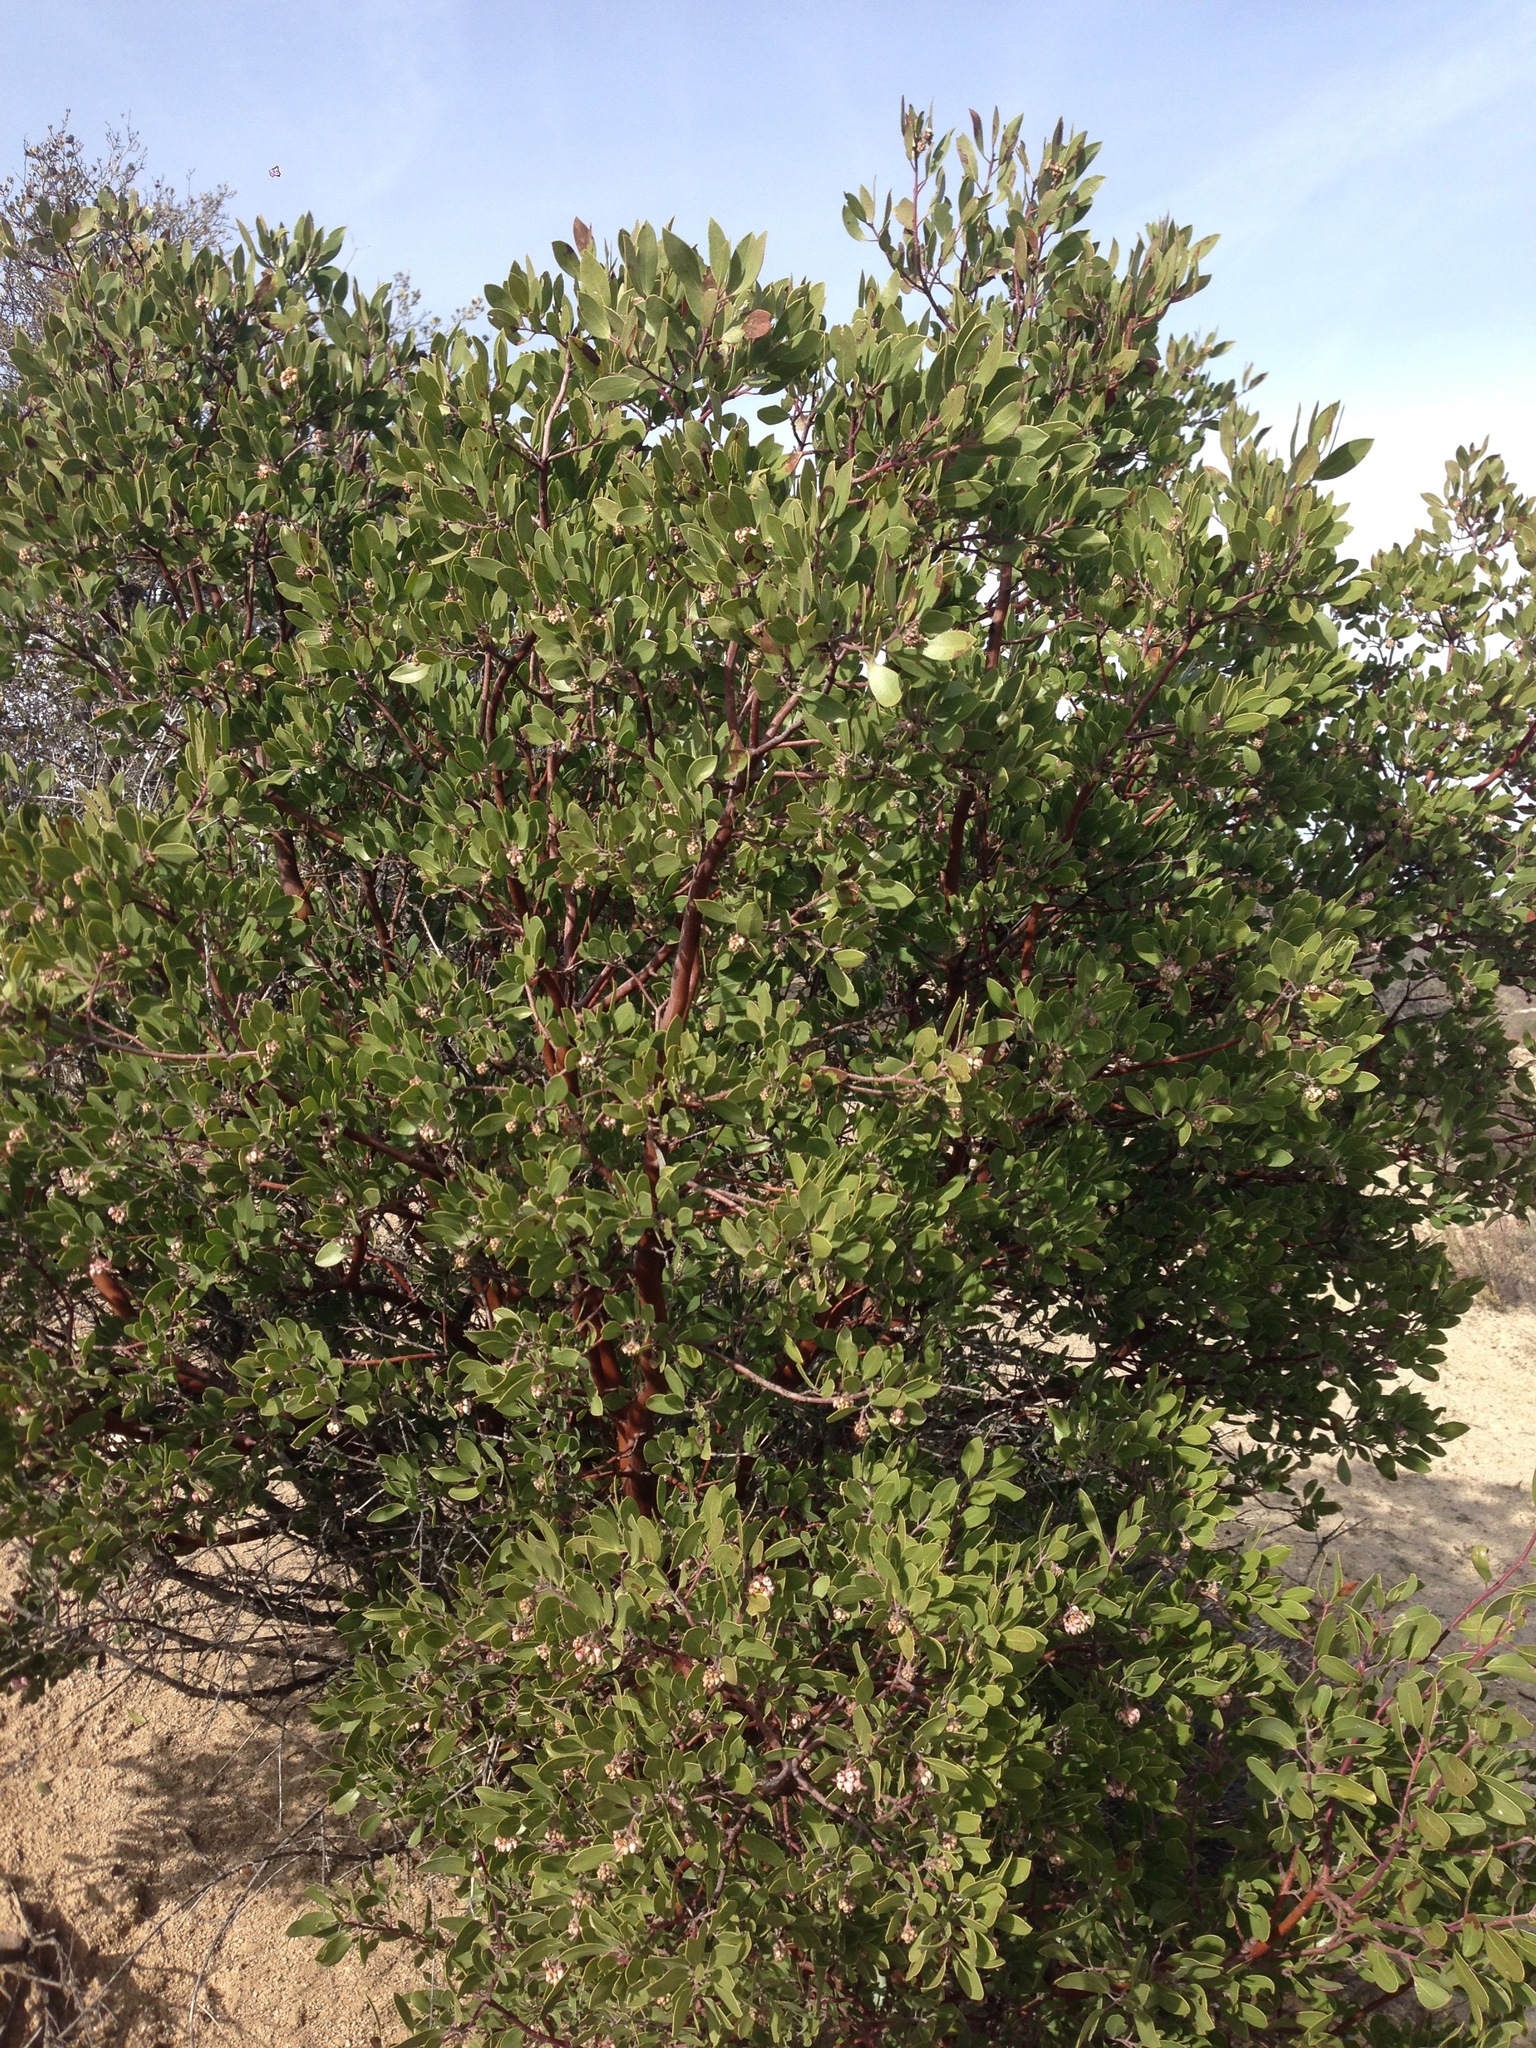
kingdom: Plantae
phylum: Tracheophyta
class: Magnoliopsida
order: Ericales
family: Ericaceae
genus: Arctostaphylos
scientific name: Arctostaphylos pungens
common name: Mexican manzanita
